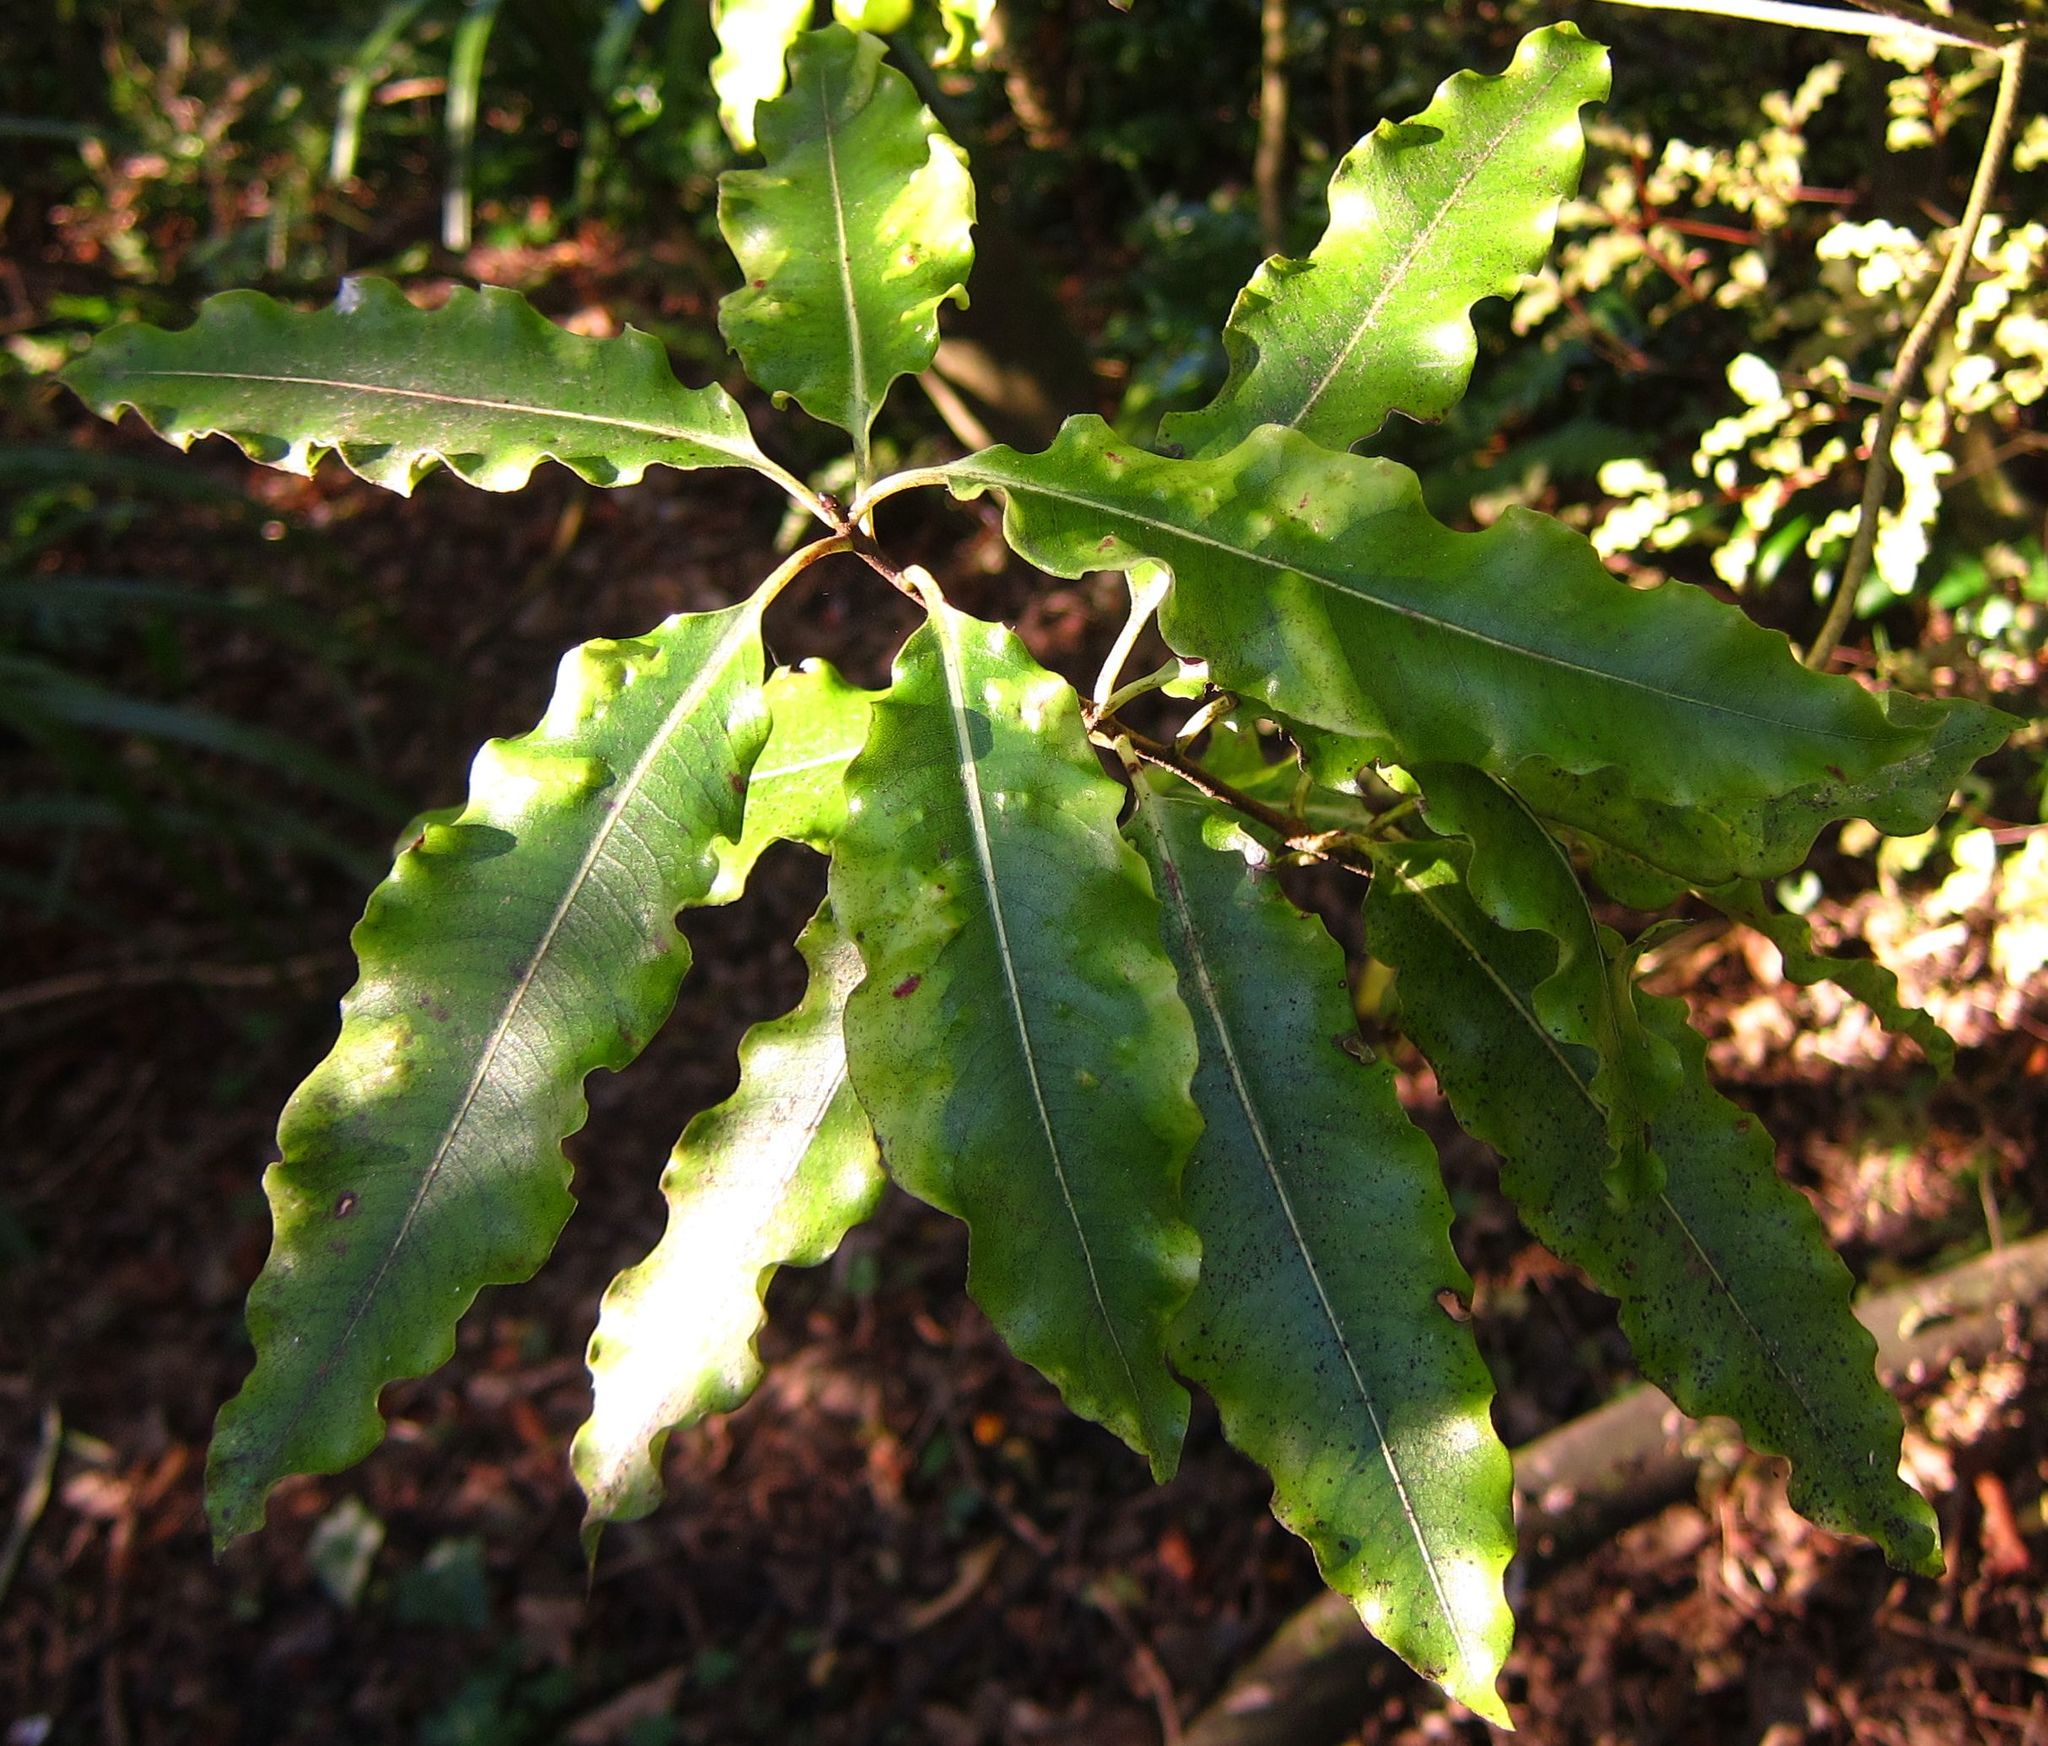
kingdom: Plantae
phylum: Tracheophyta
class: Magnoliopsida
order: Apiales
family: Pittosporaceae
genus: Pittosporum
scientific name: Pittosporum eugenioides
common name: Lemonwood
